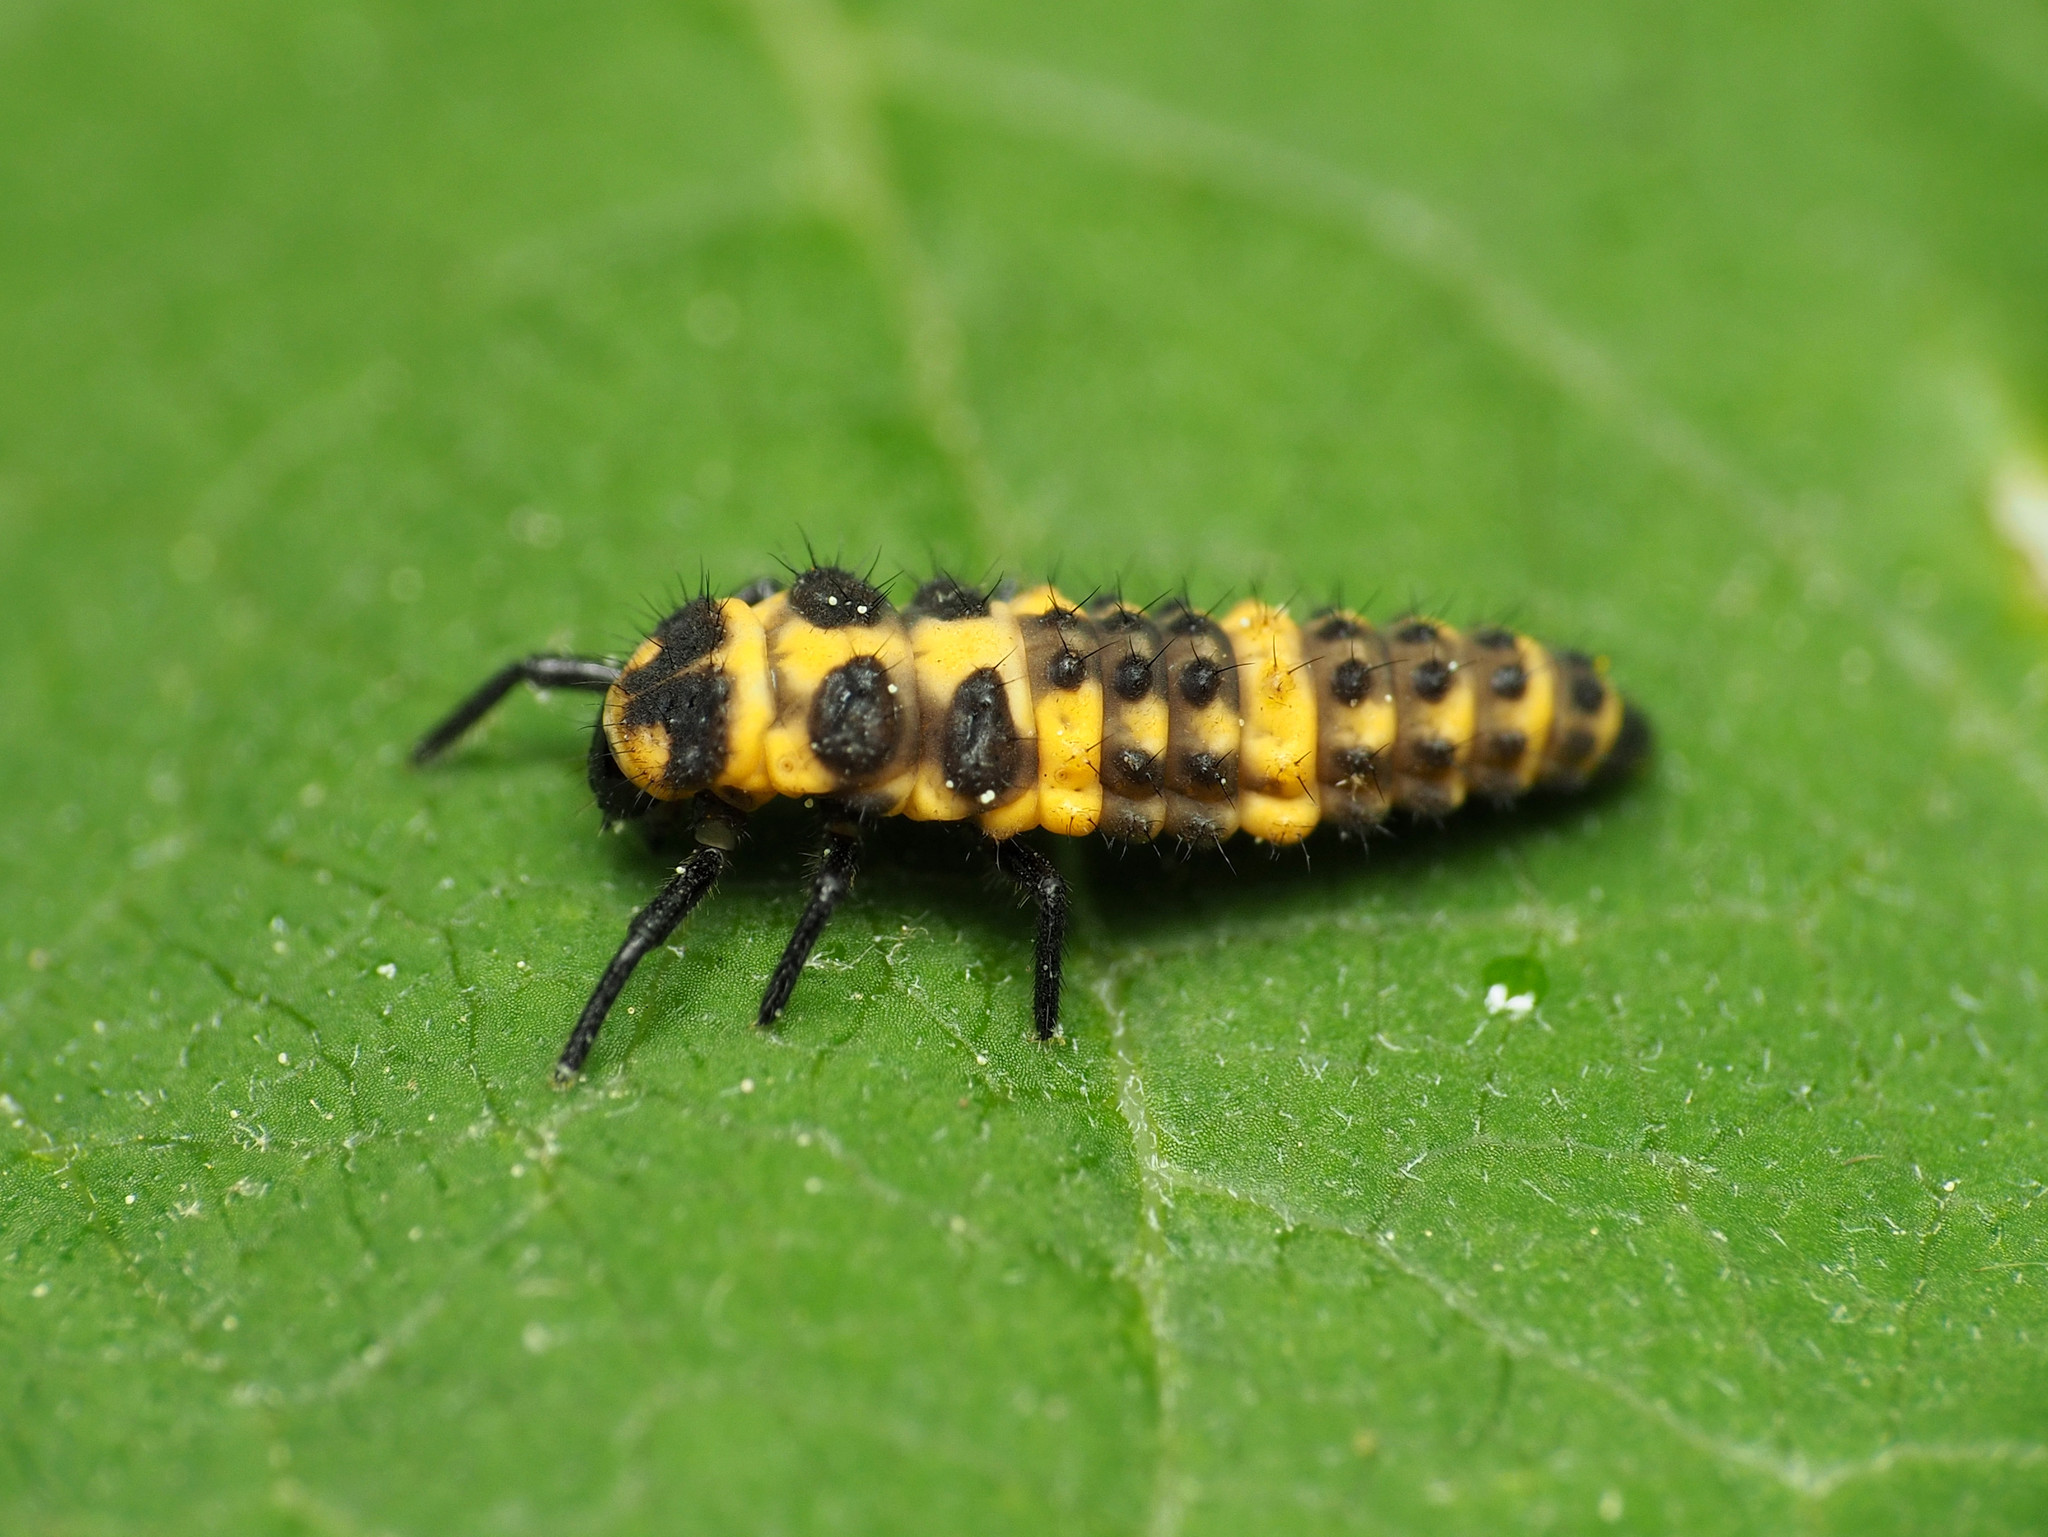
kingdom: Animalia
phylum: Arthropoda
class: Insecta
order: Coleoptera
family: Coccinellidae
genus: Coleomegilla
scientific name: Coleomegilla maculata
